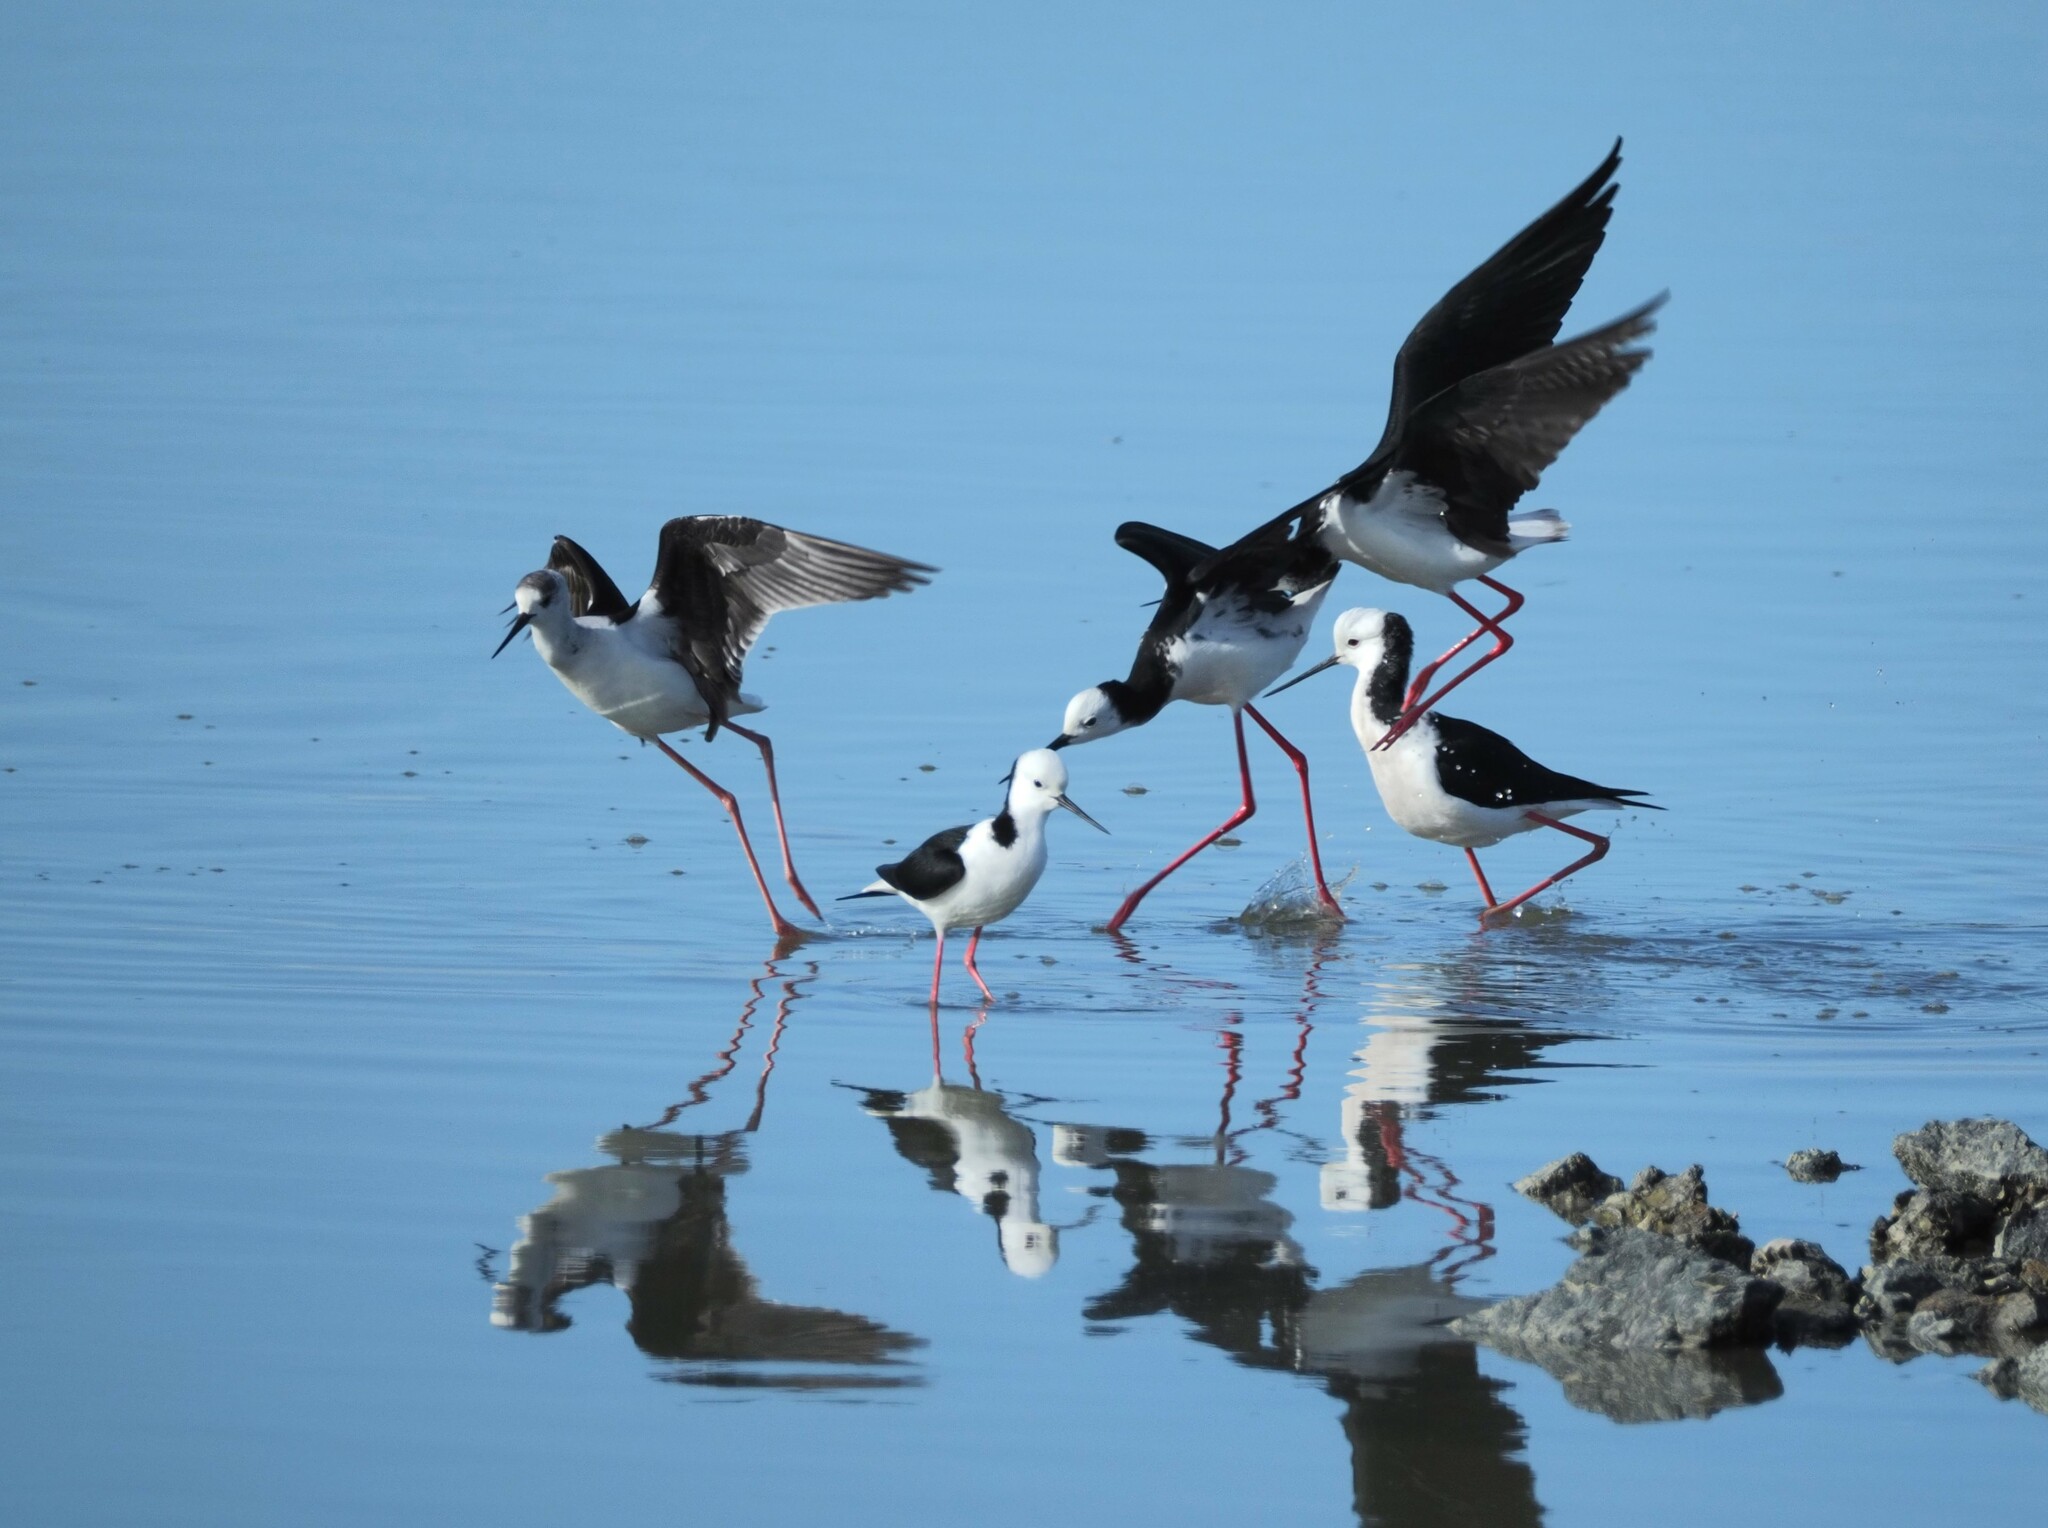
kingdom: Animalia
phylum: Chordata
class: Aves
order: Charadriiformes
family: Recurvirostridae
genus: Himantopus
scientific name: Himantopus leucocephalus
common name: White-headed stilt
